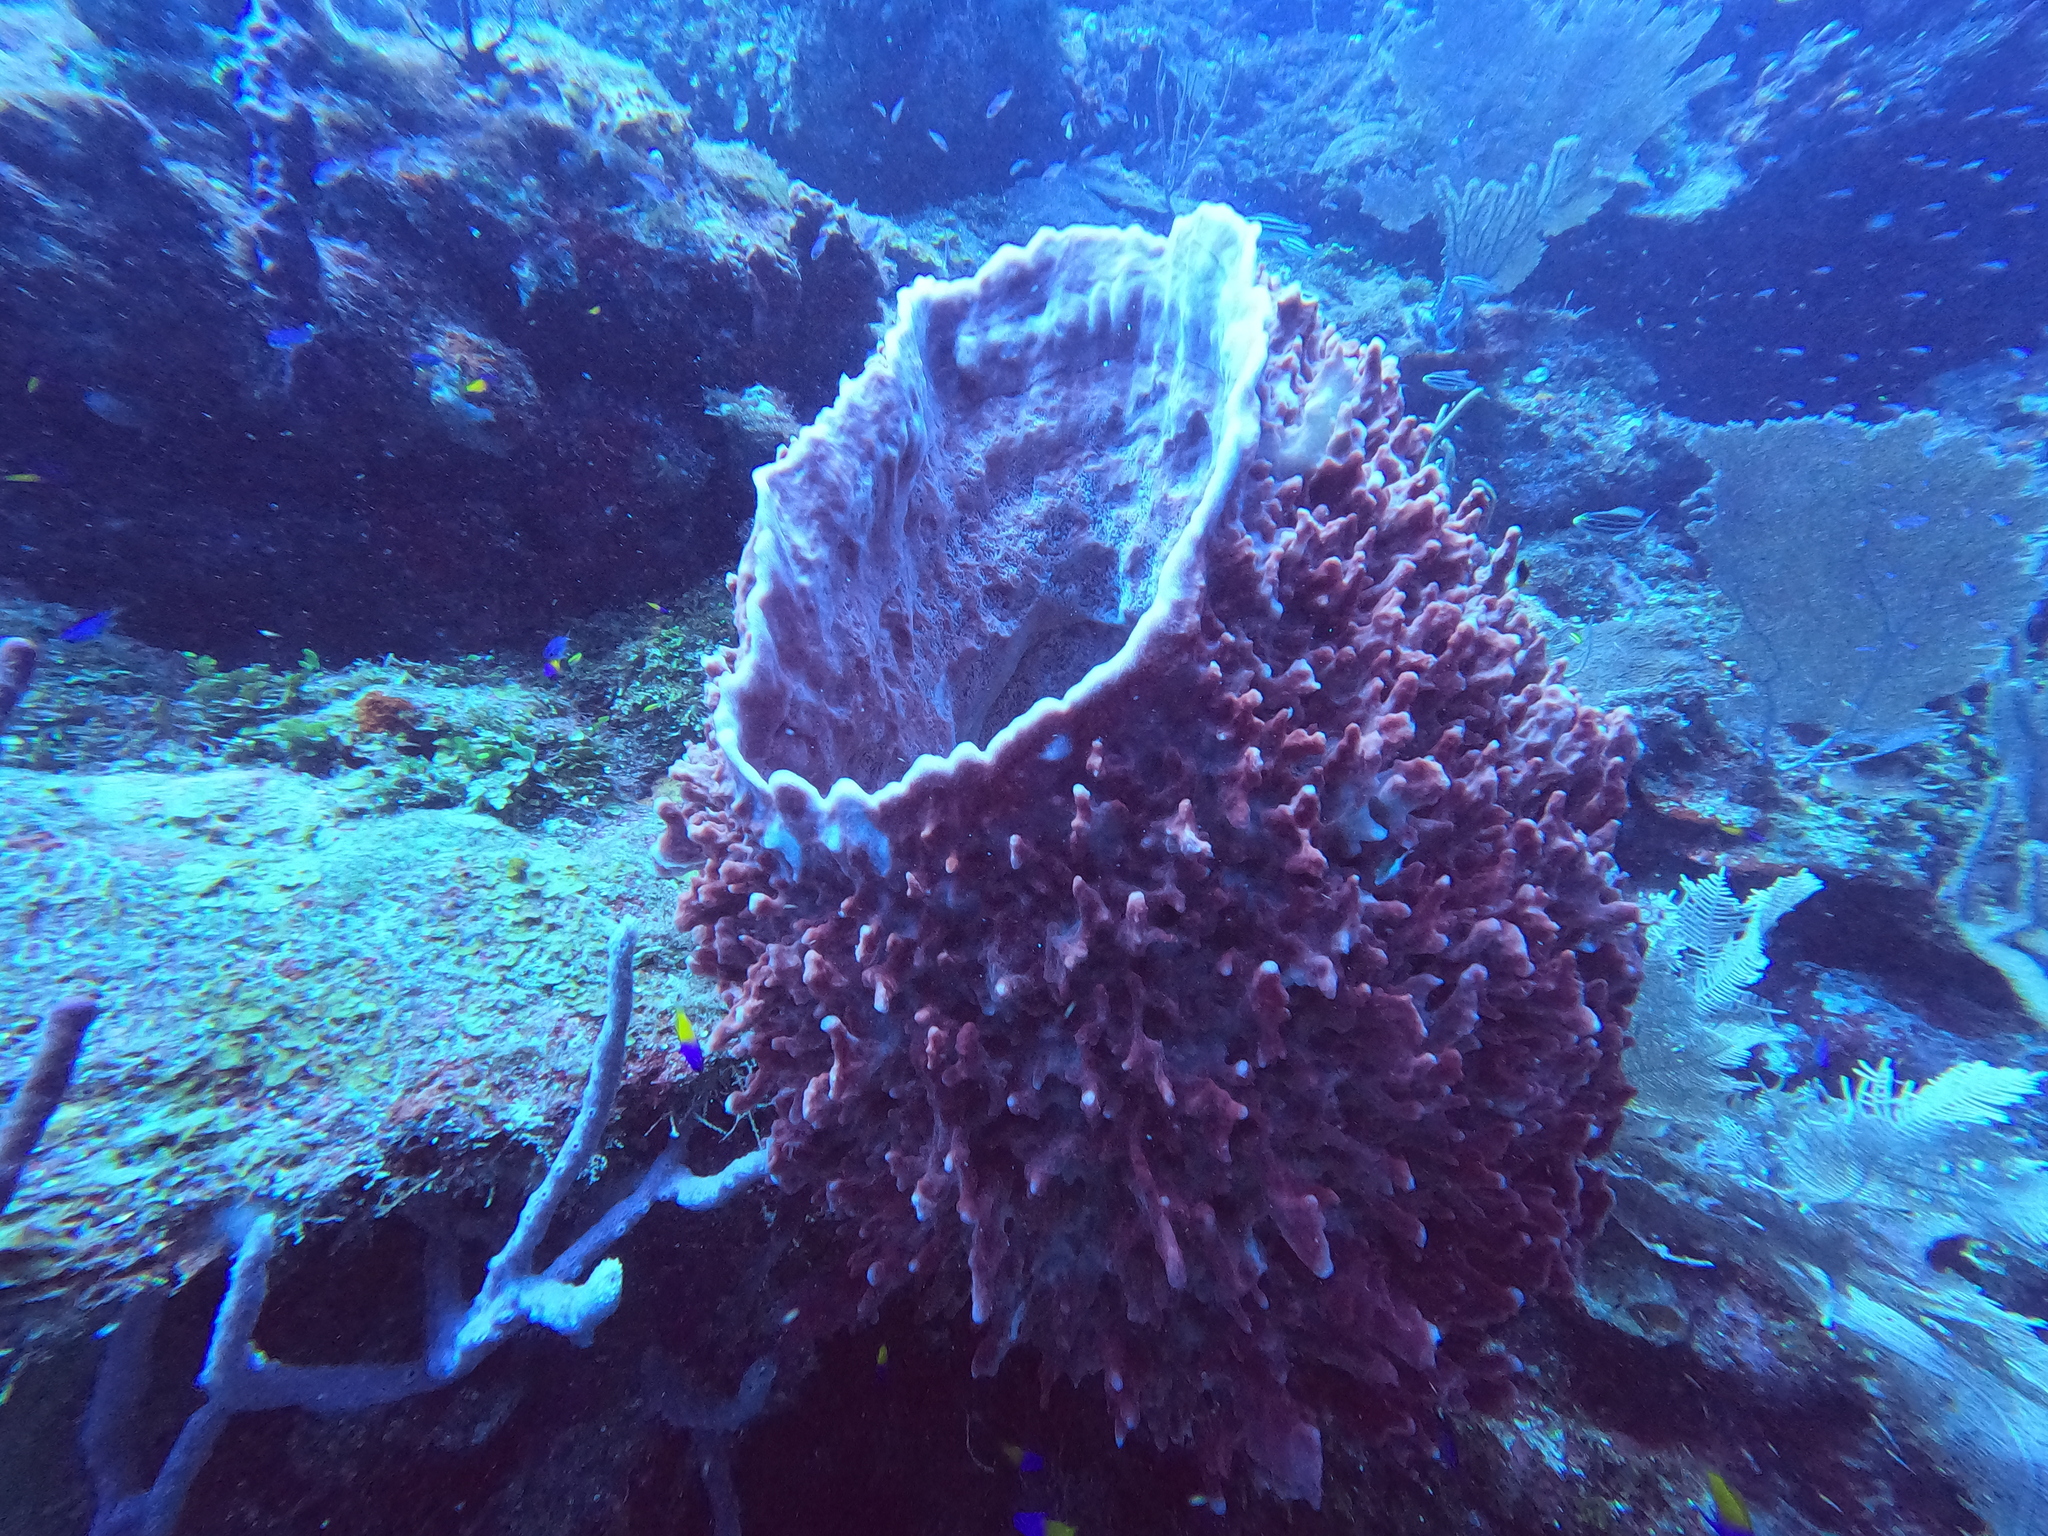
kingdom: Animalia
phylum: Porifera
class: Demospongiae
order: Haplosclerida
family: Petrosiidae
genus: Xestospongia
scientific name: Xestospongia muta
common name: Giant barrel sponge
